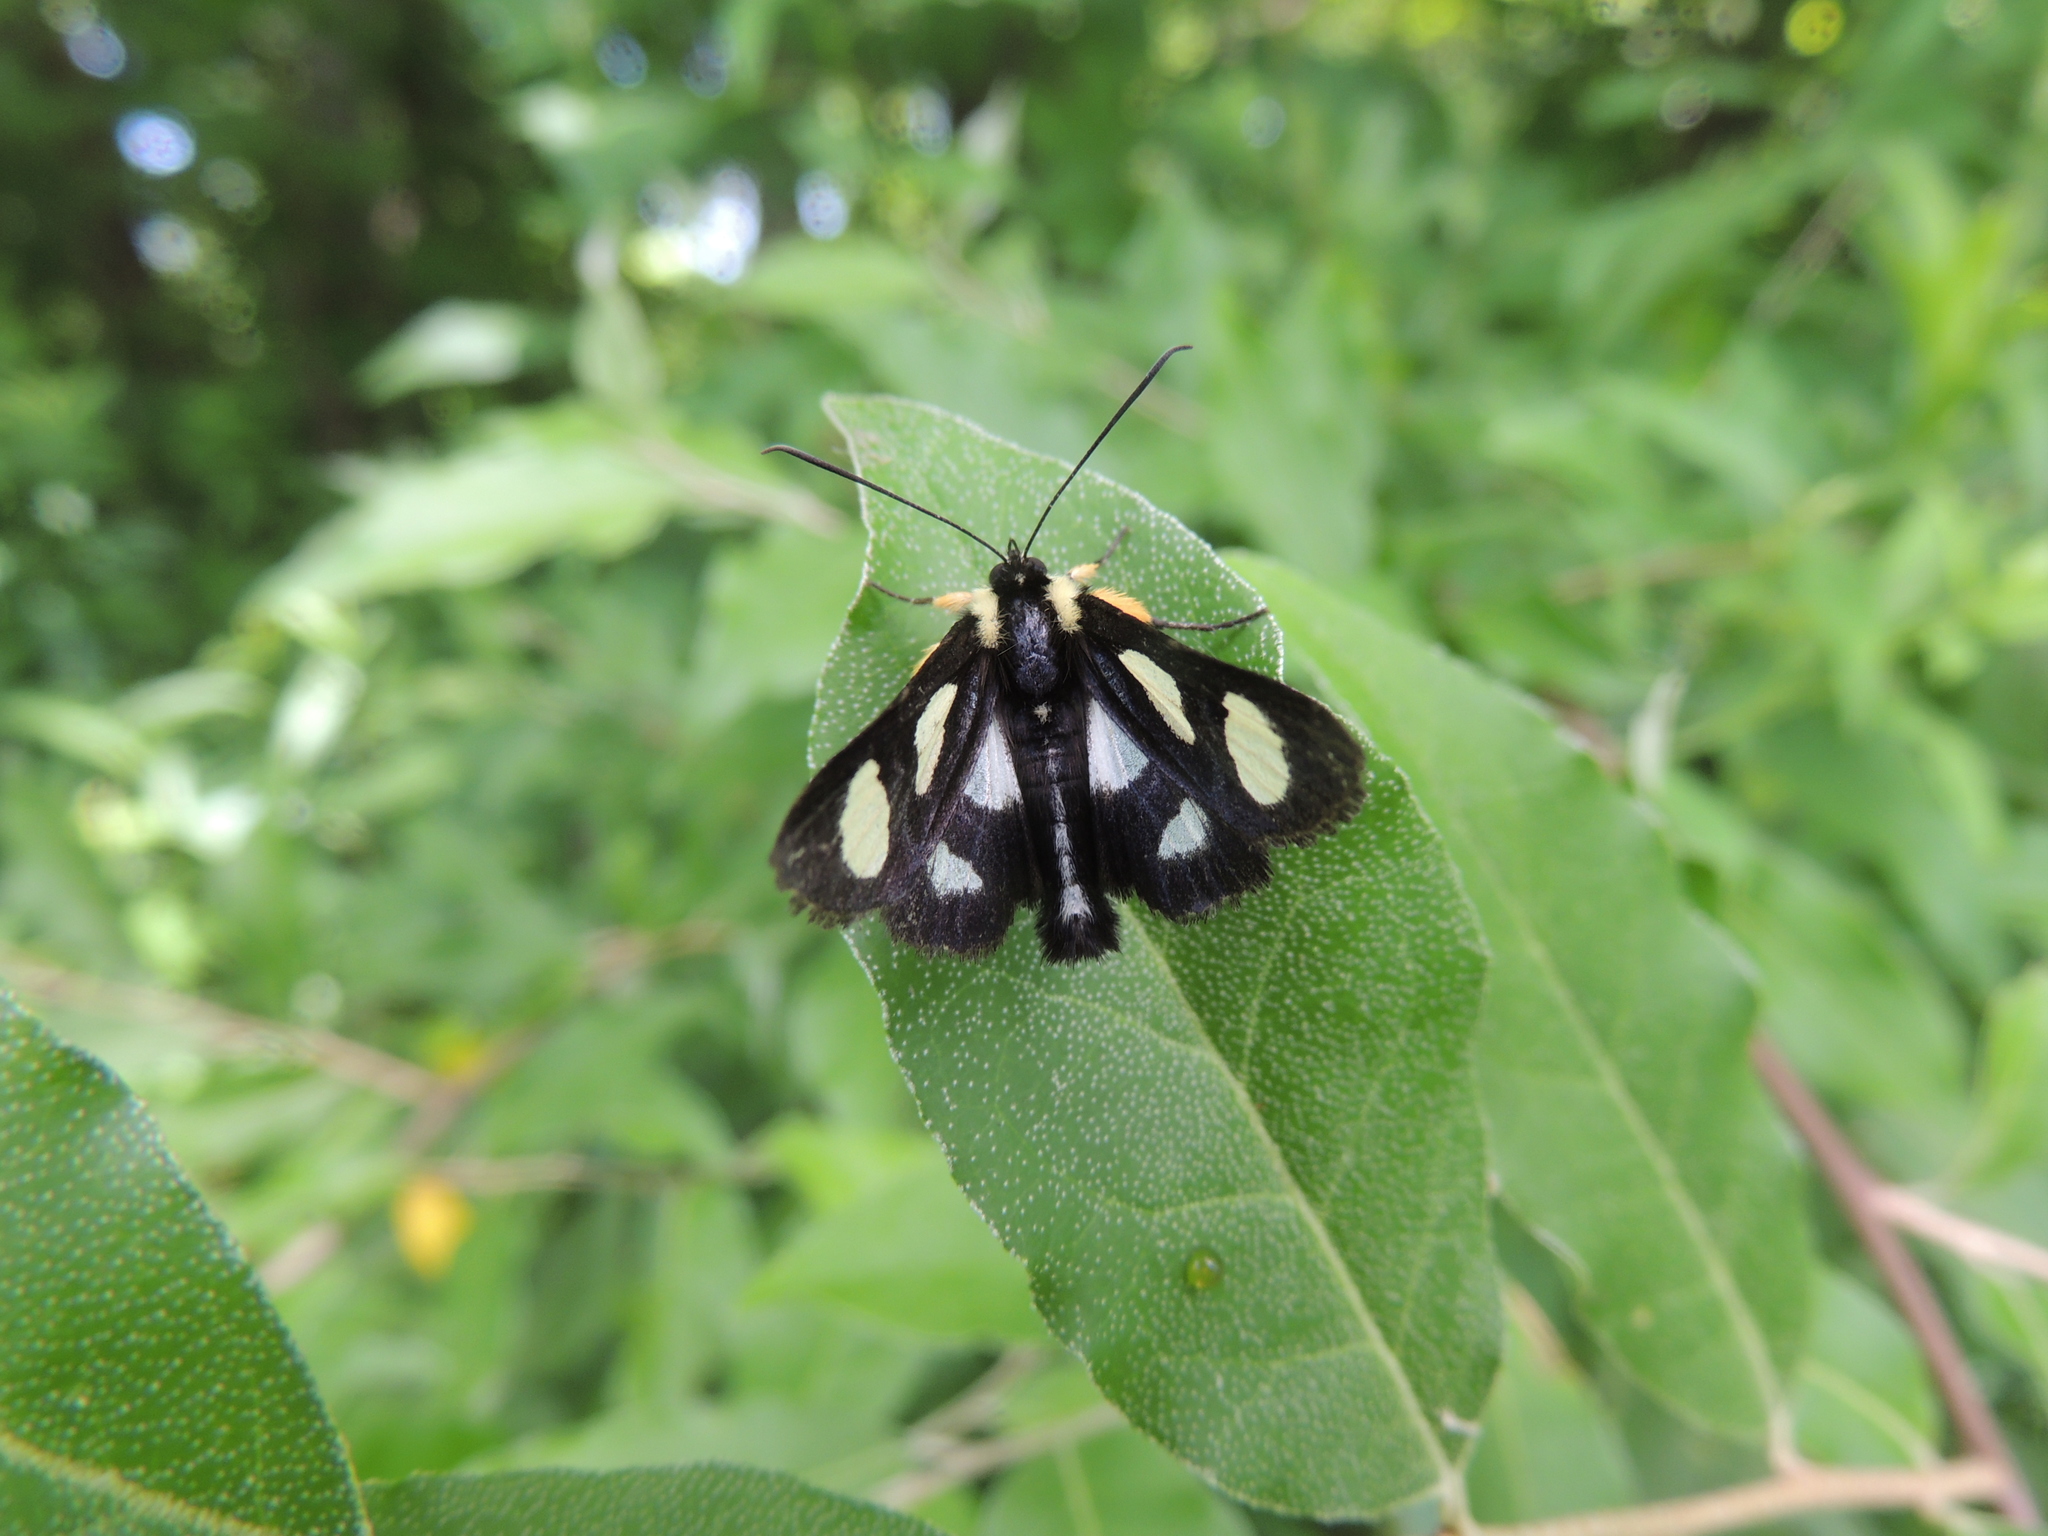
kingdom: Animalia
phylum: Arthropoda
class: Insecta
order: Lepidoptera
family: Noctuidae
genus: Alypia
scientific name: Alypia octomaculata
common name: Eight-spotted forester
